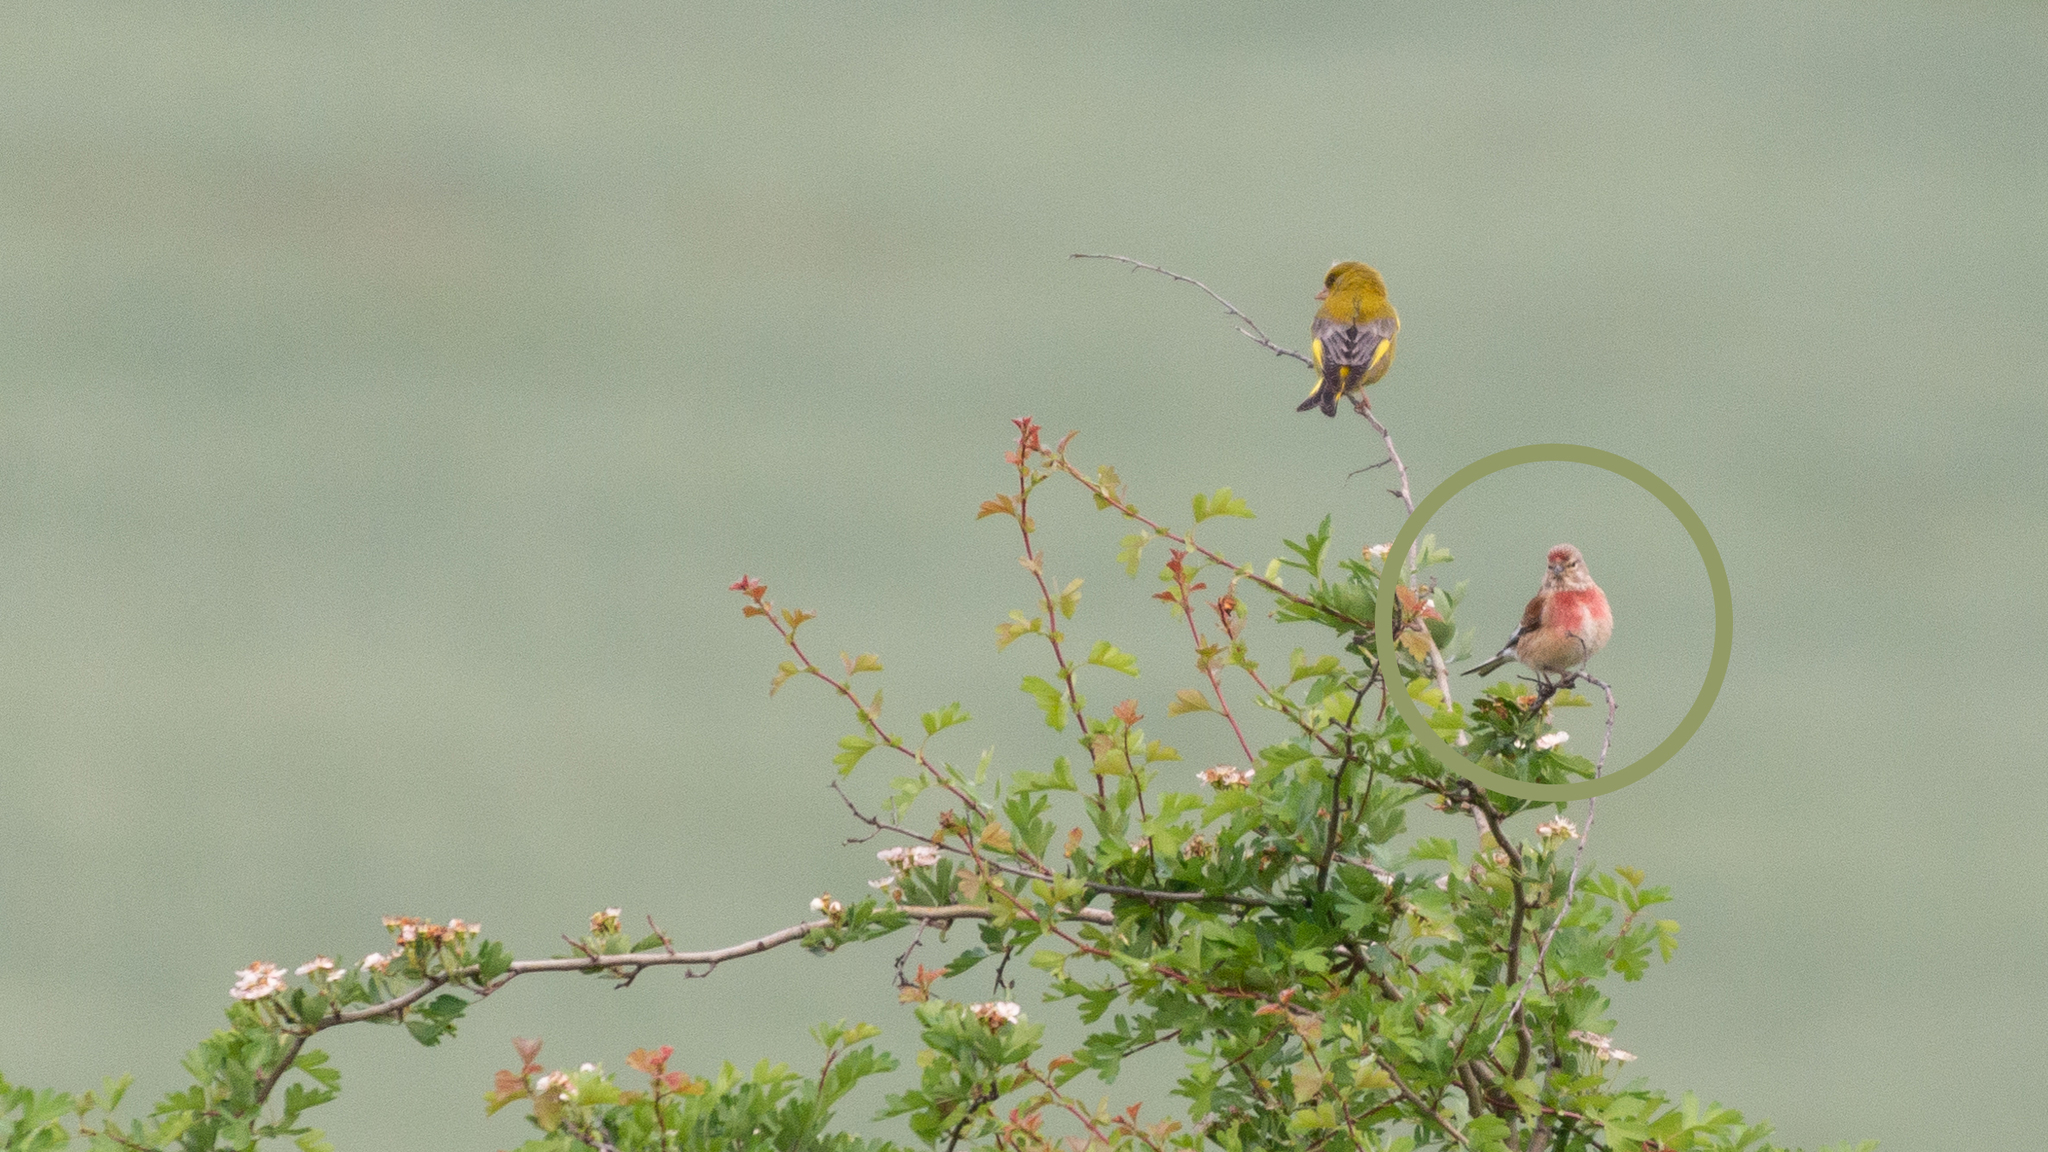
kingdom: Animalia
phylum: Chordata
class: Aves
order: Passeriformes
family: Fringillidae
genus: Linaria
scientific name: Linaria cannabina
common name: Common linnet
